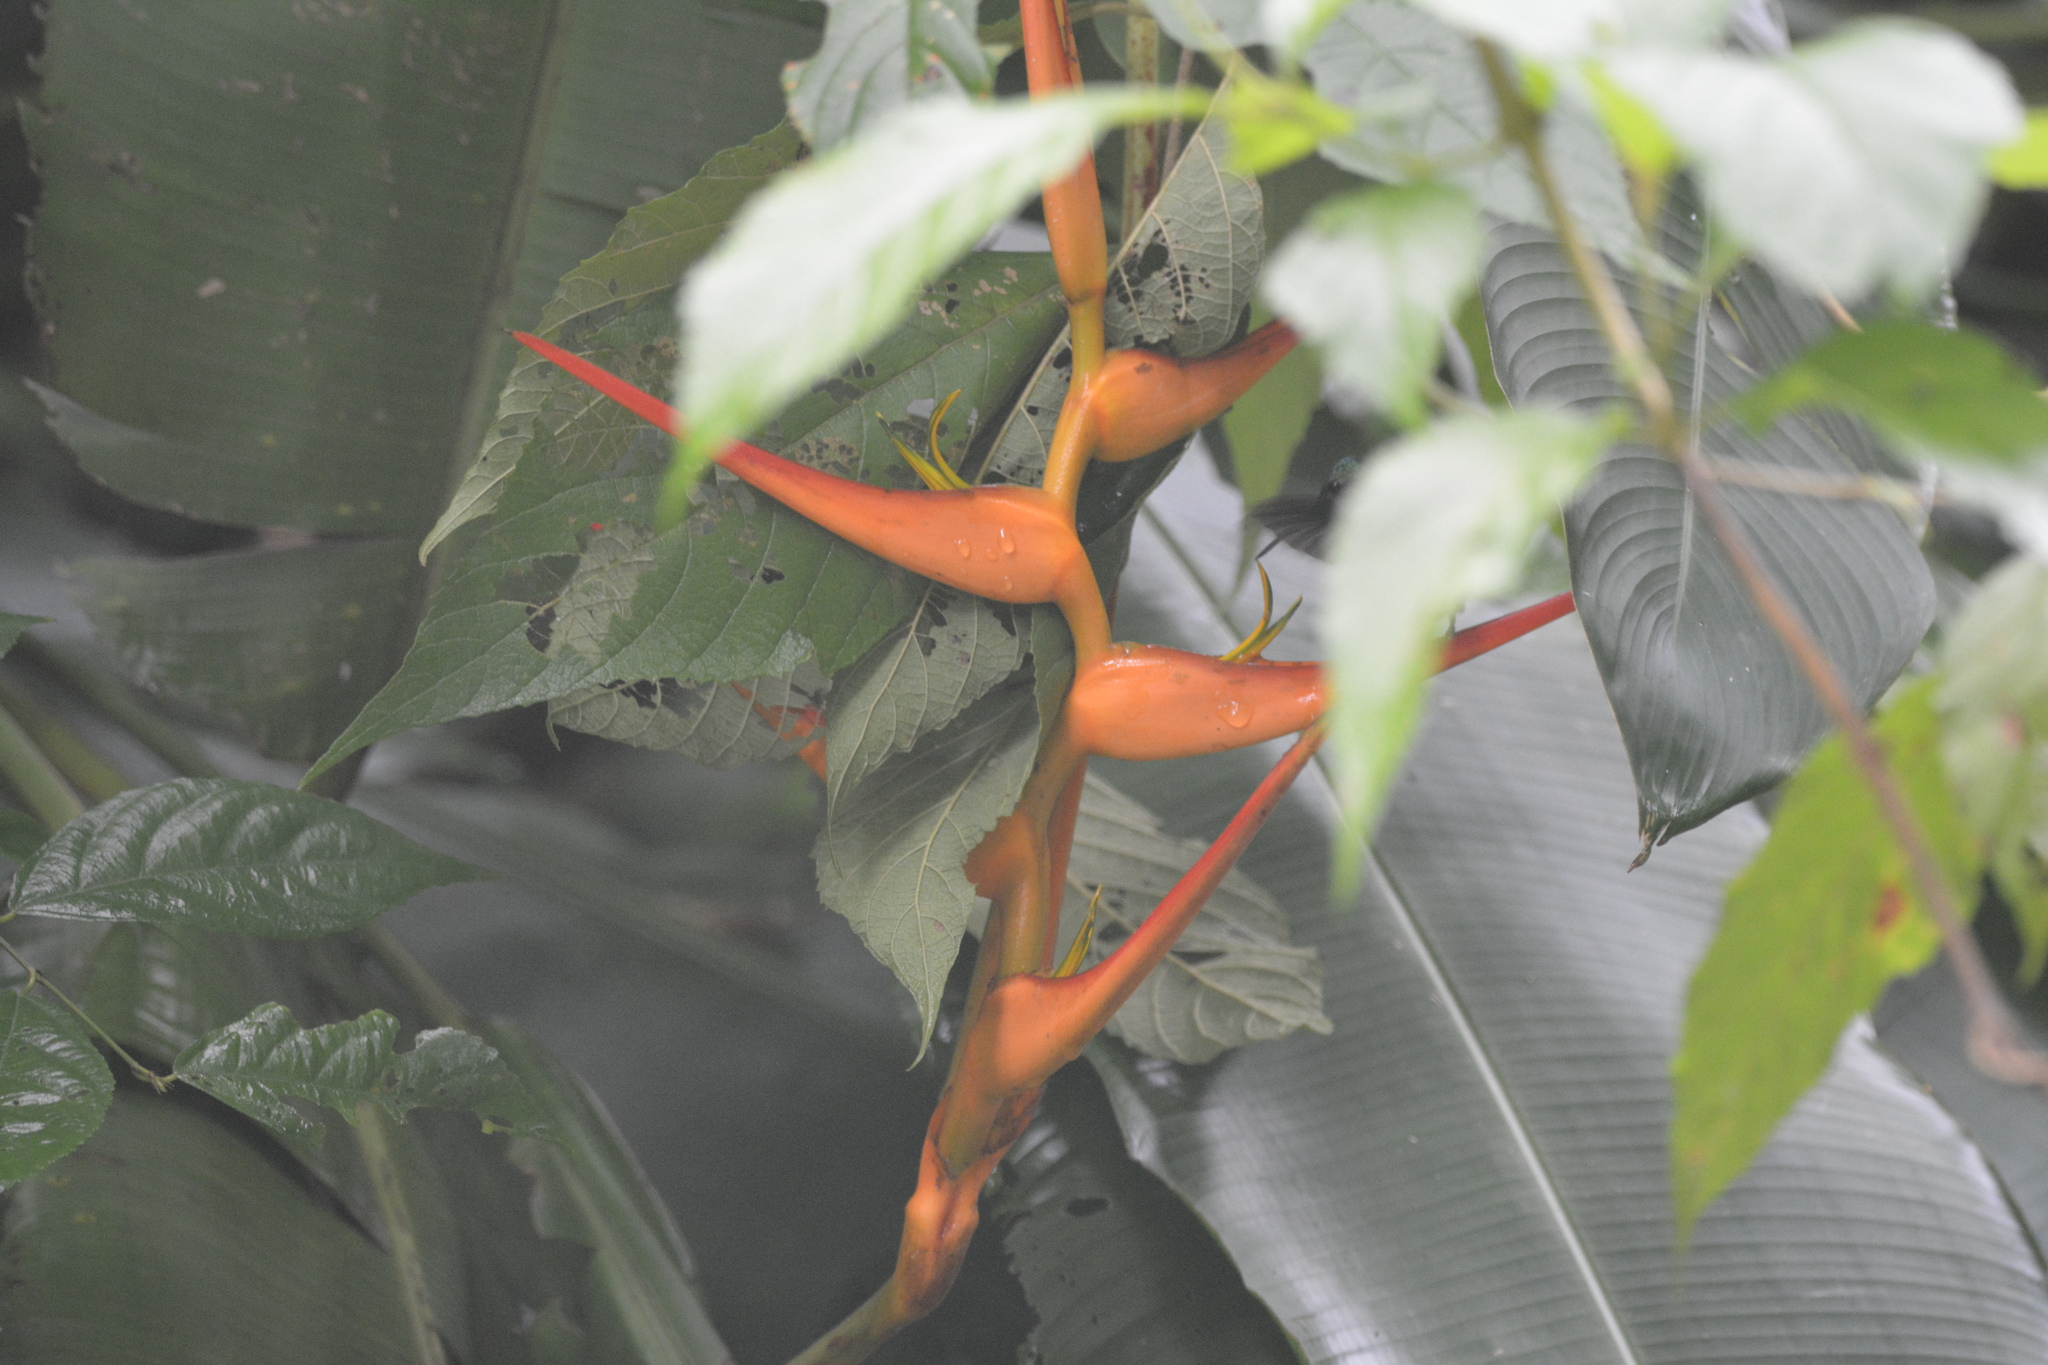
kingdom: Plantae
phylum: Tracheophyta
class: Liliopsida
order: Zingiberales
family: Heliconiaceae
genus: Heliconia
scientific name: Heliconia latispatha
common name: Expanded lobsterclaw
